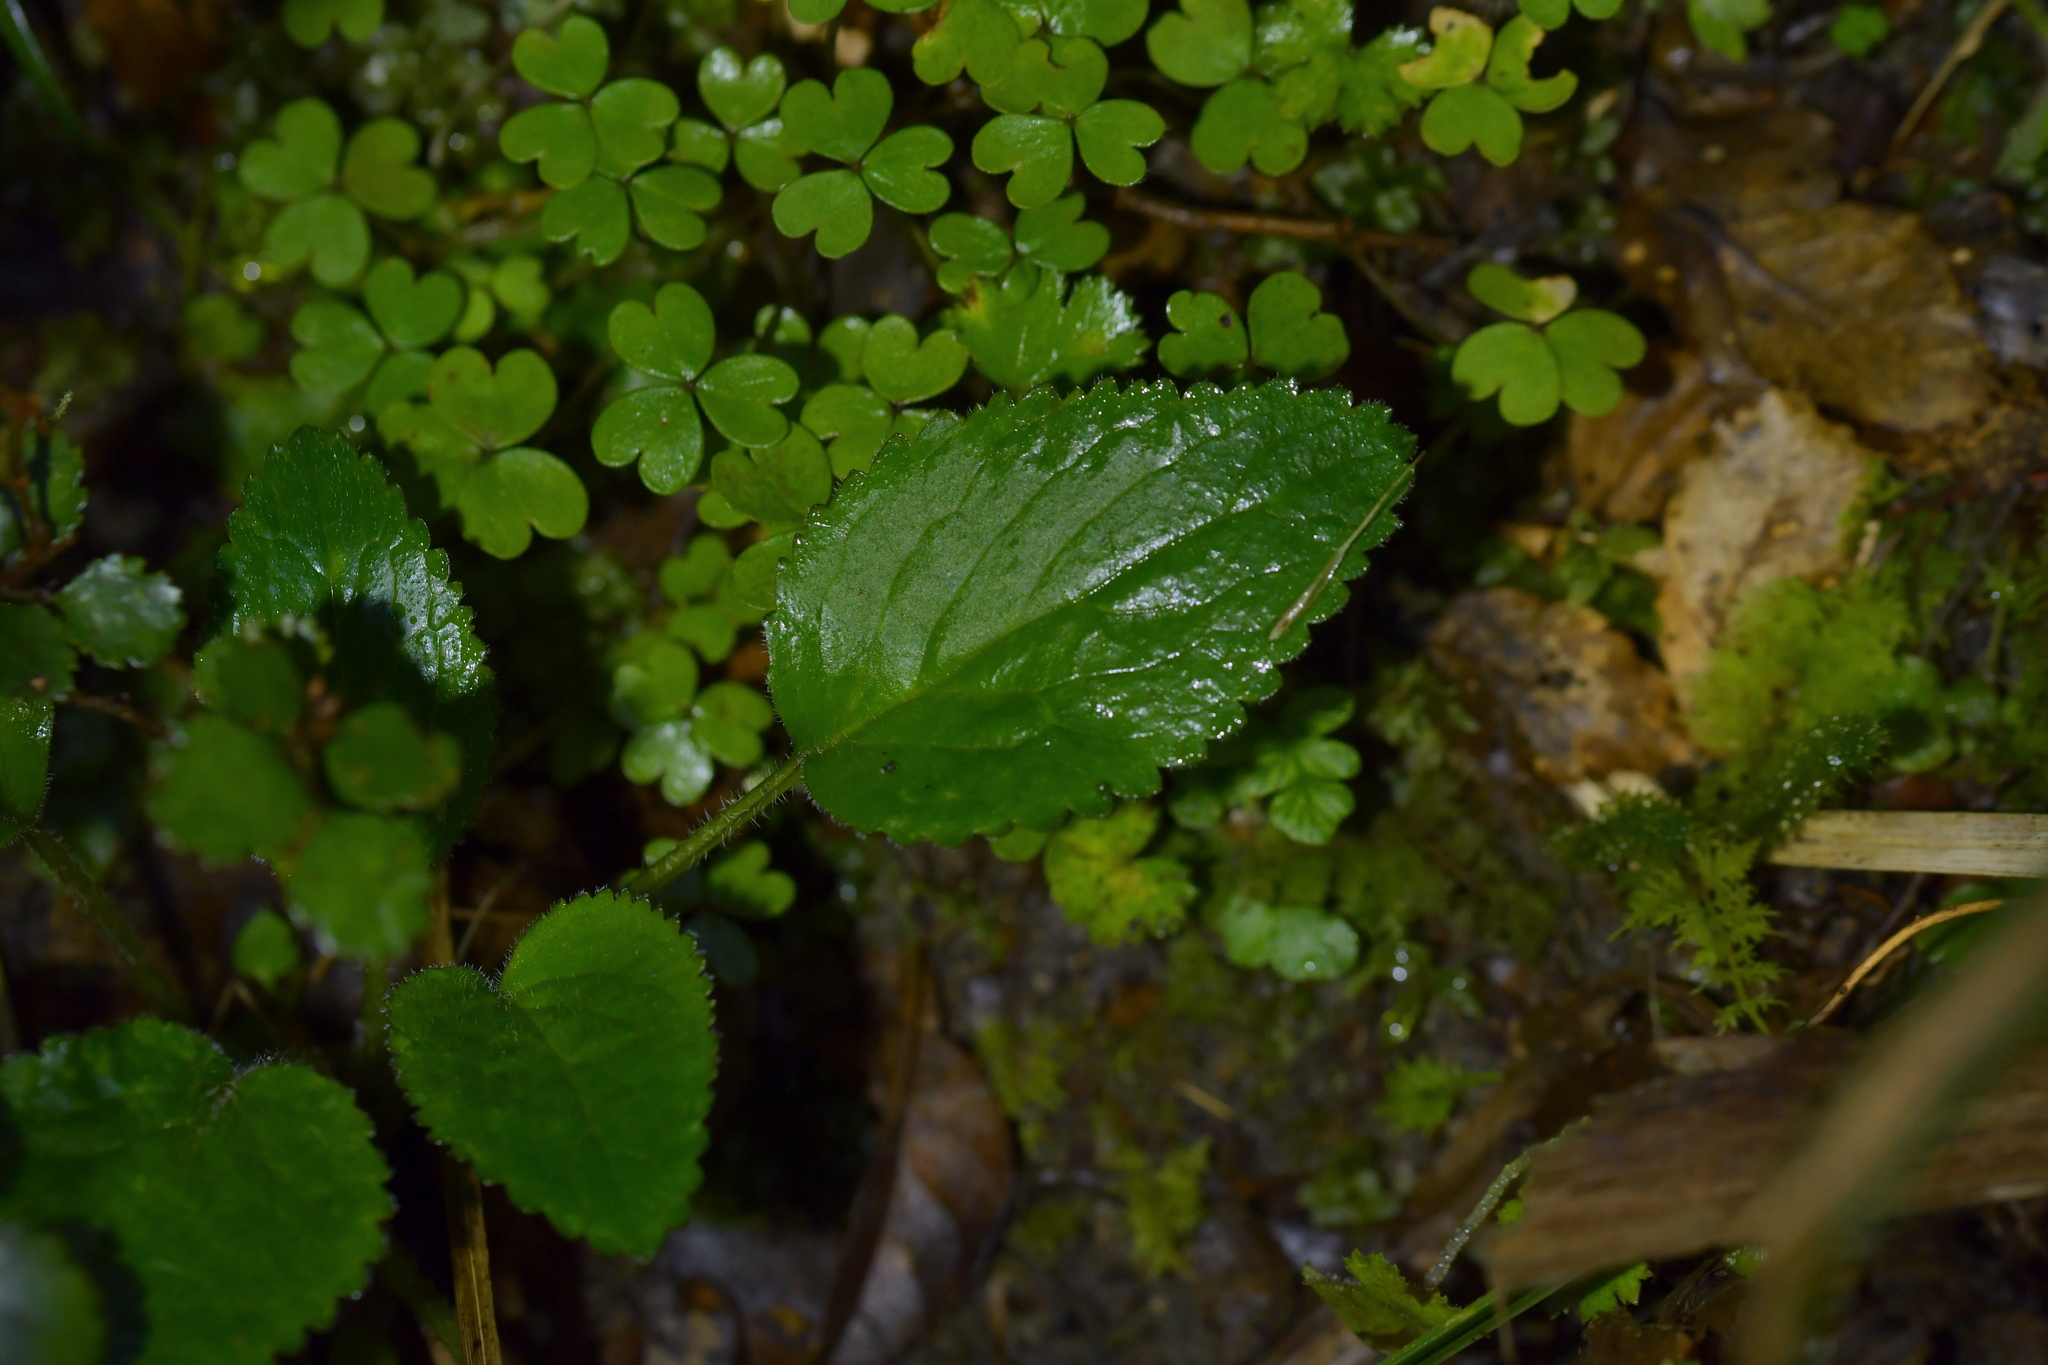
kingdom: Plantae
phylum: Tracheophyta
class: Magnoliopsida
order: Lamiales
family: Plantaginaceae
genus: Ourisia
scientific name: Ourisia macrophylla
